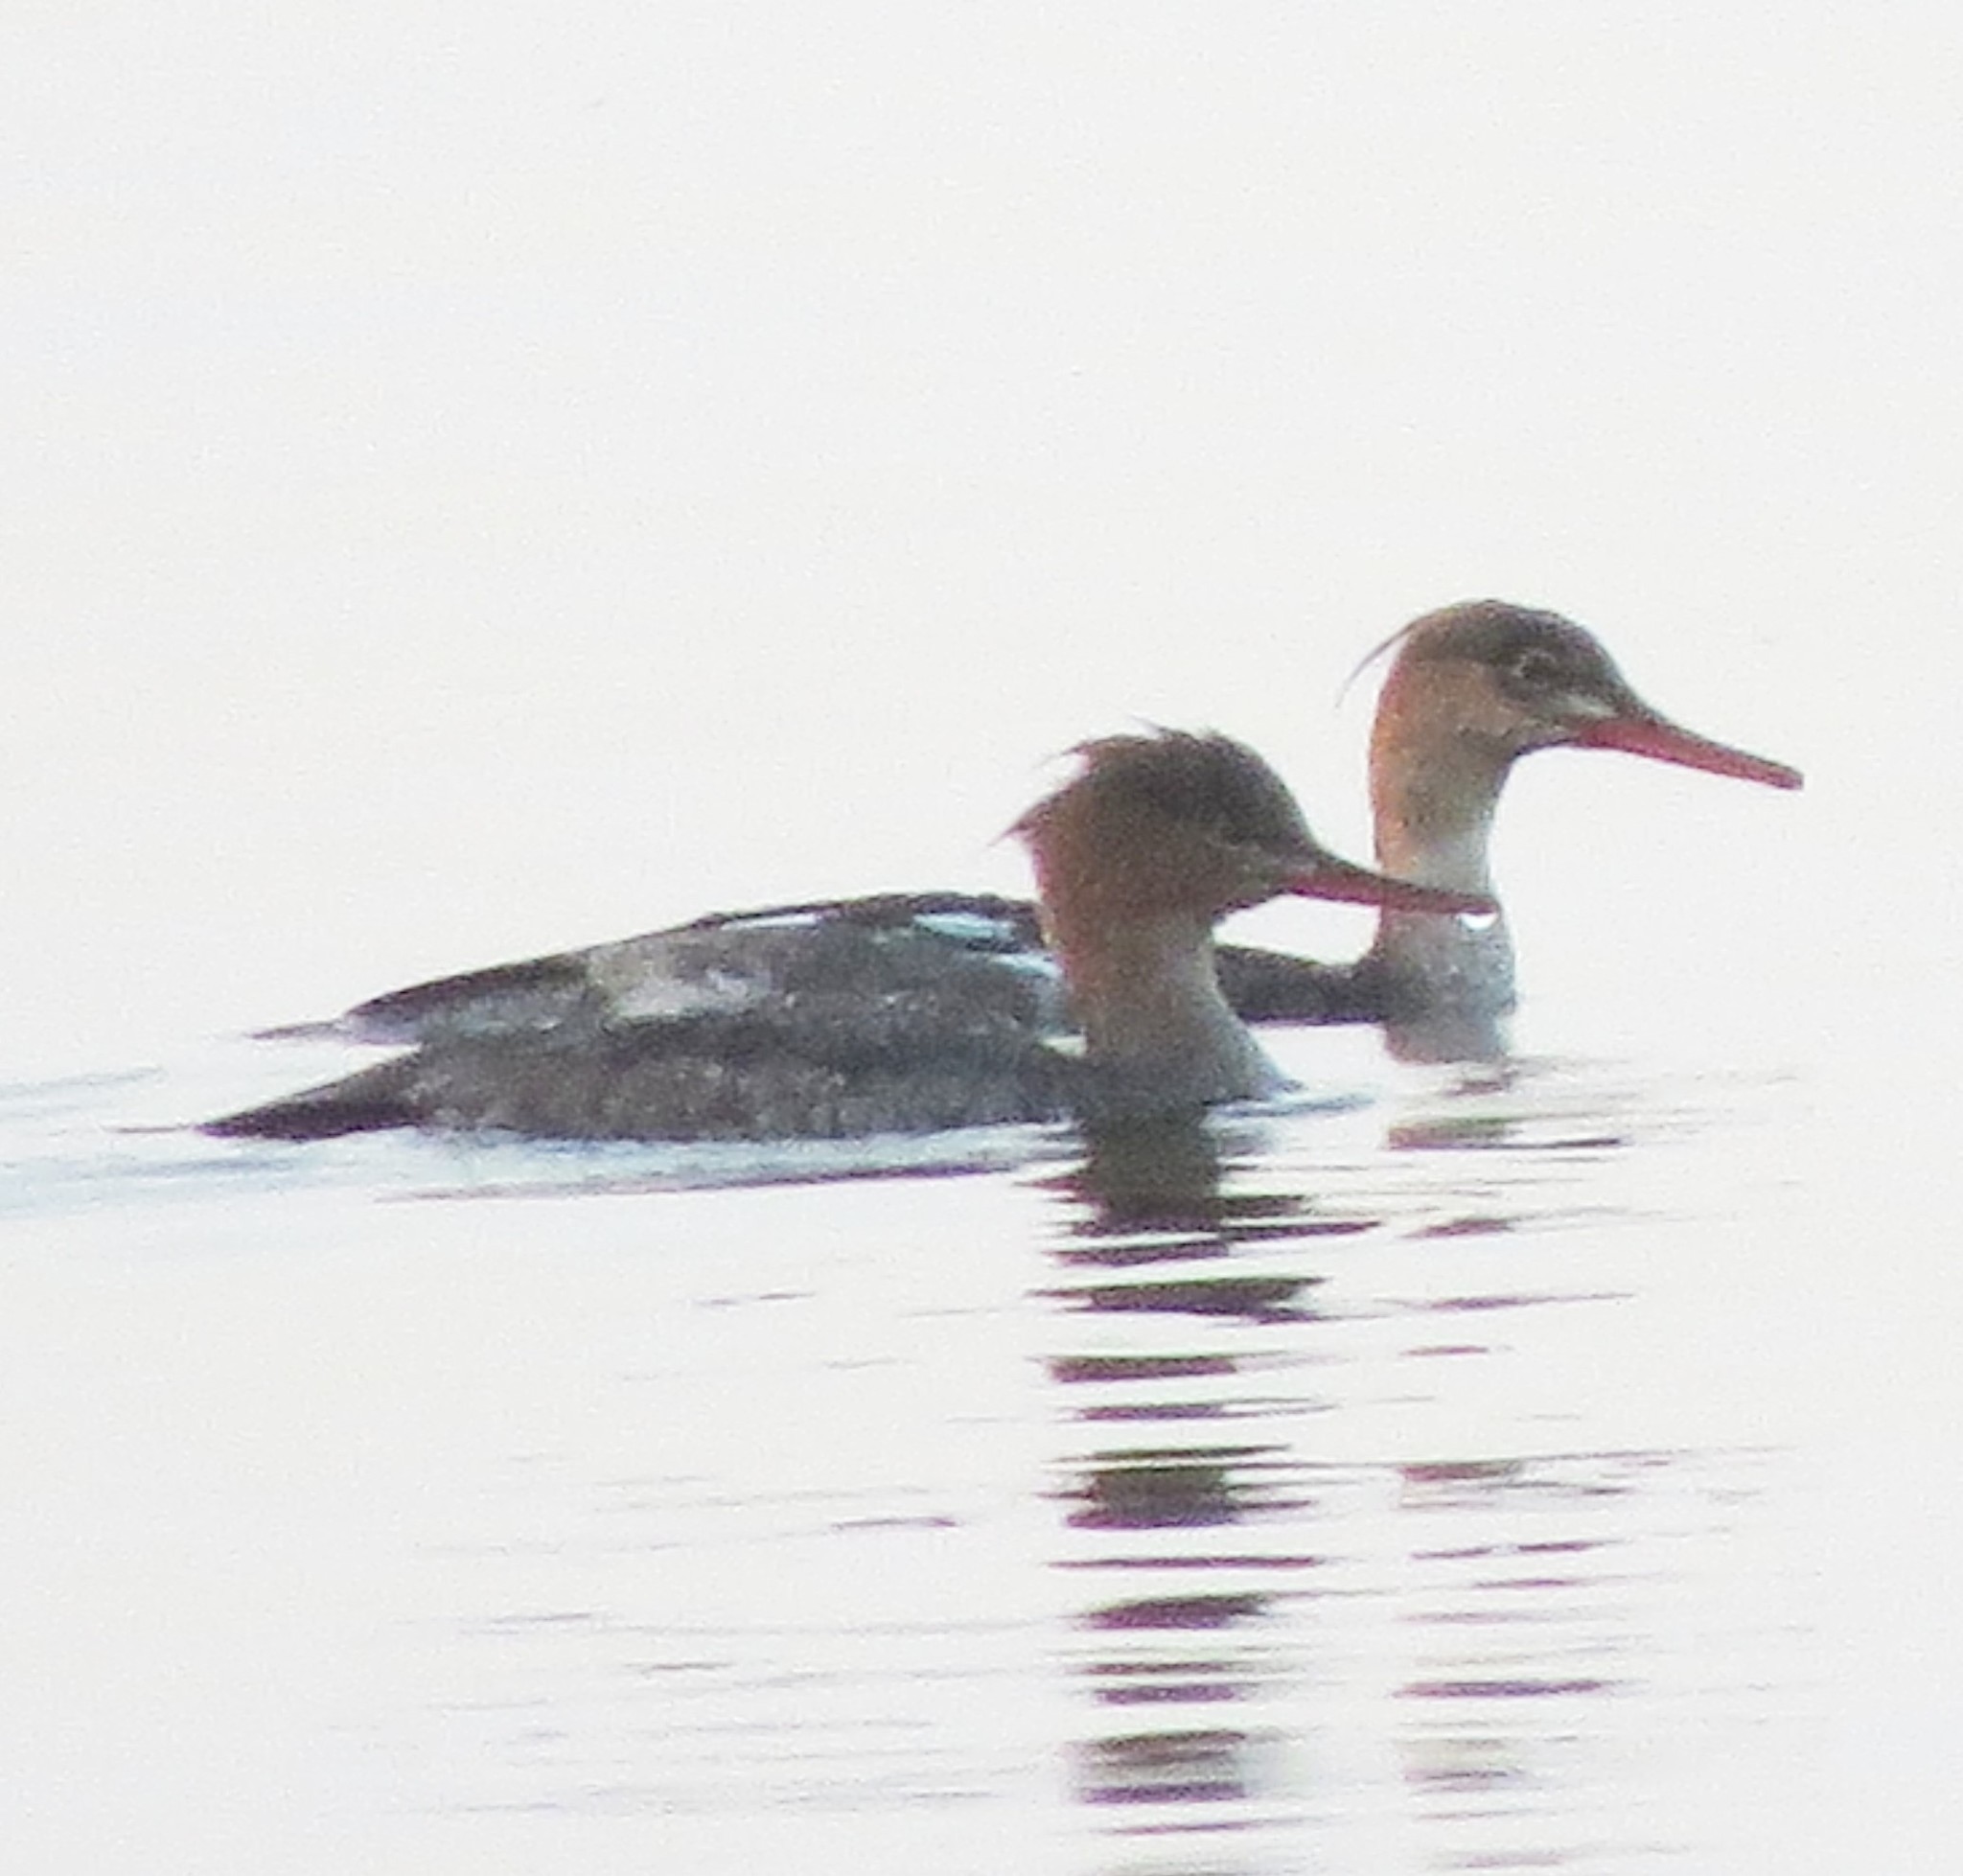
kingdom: Animalia
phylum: Chordata
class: Aves
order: Anseriformes
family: Anatidae
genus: Mergus
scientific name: Mergus serrator
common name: Red-breasted merganser
